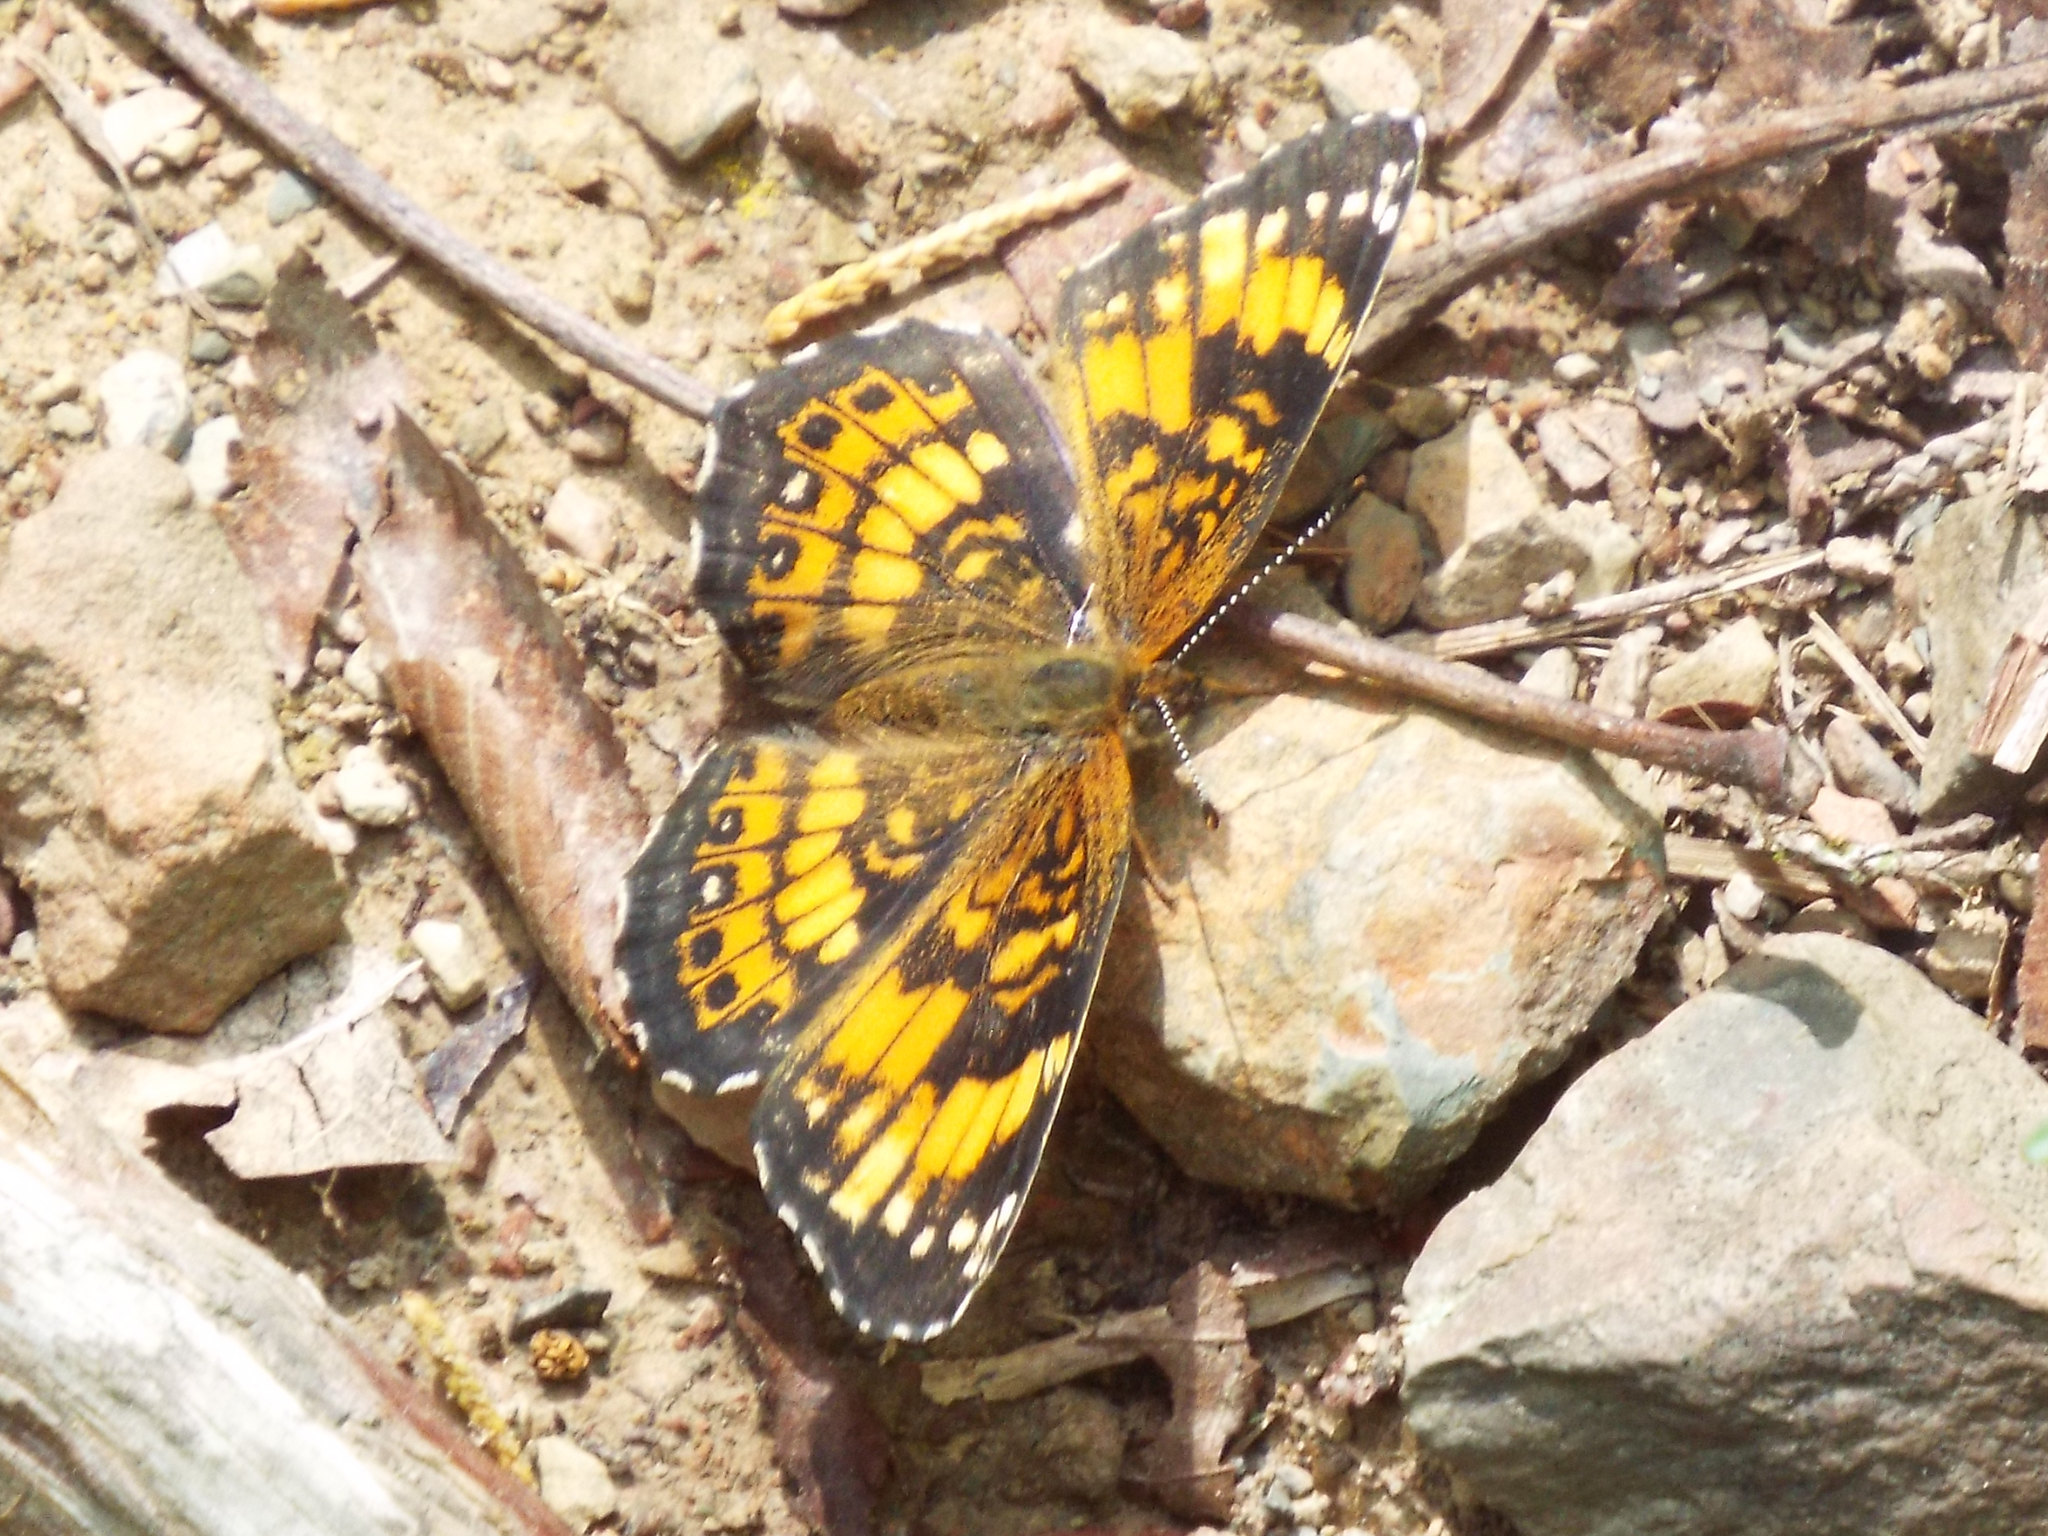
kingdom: Animalia
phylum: Arthropoda
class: Insecta
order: Lepidoptera
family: Nymphalidae
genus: Chlosyne
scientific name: Chlosyne nycteis
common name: Silvery checkerspot
